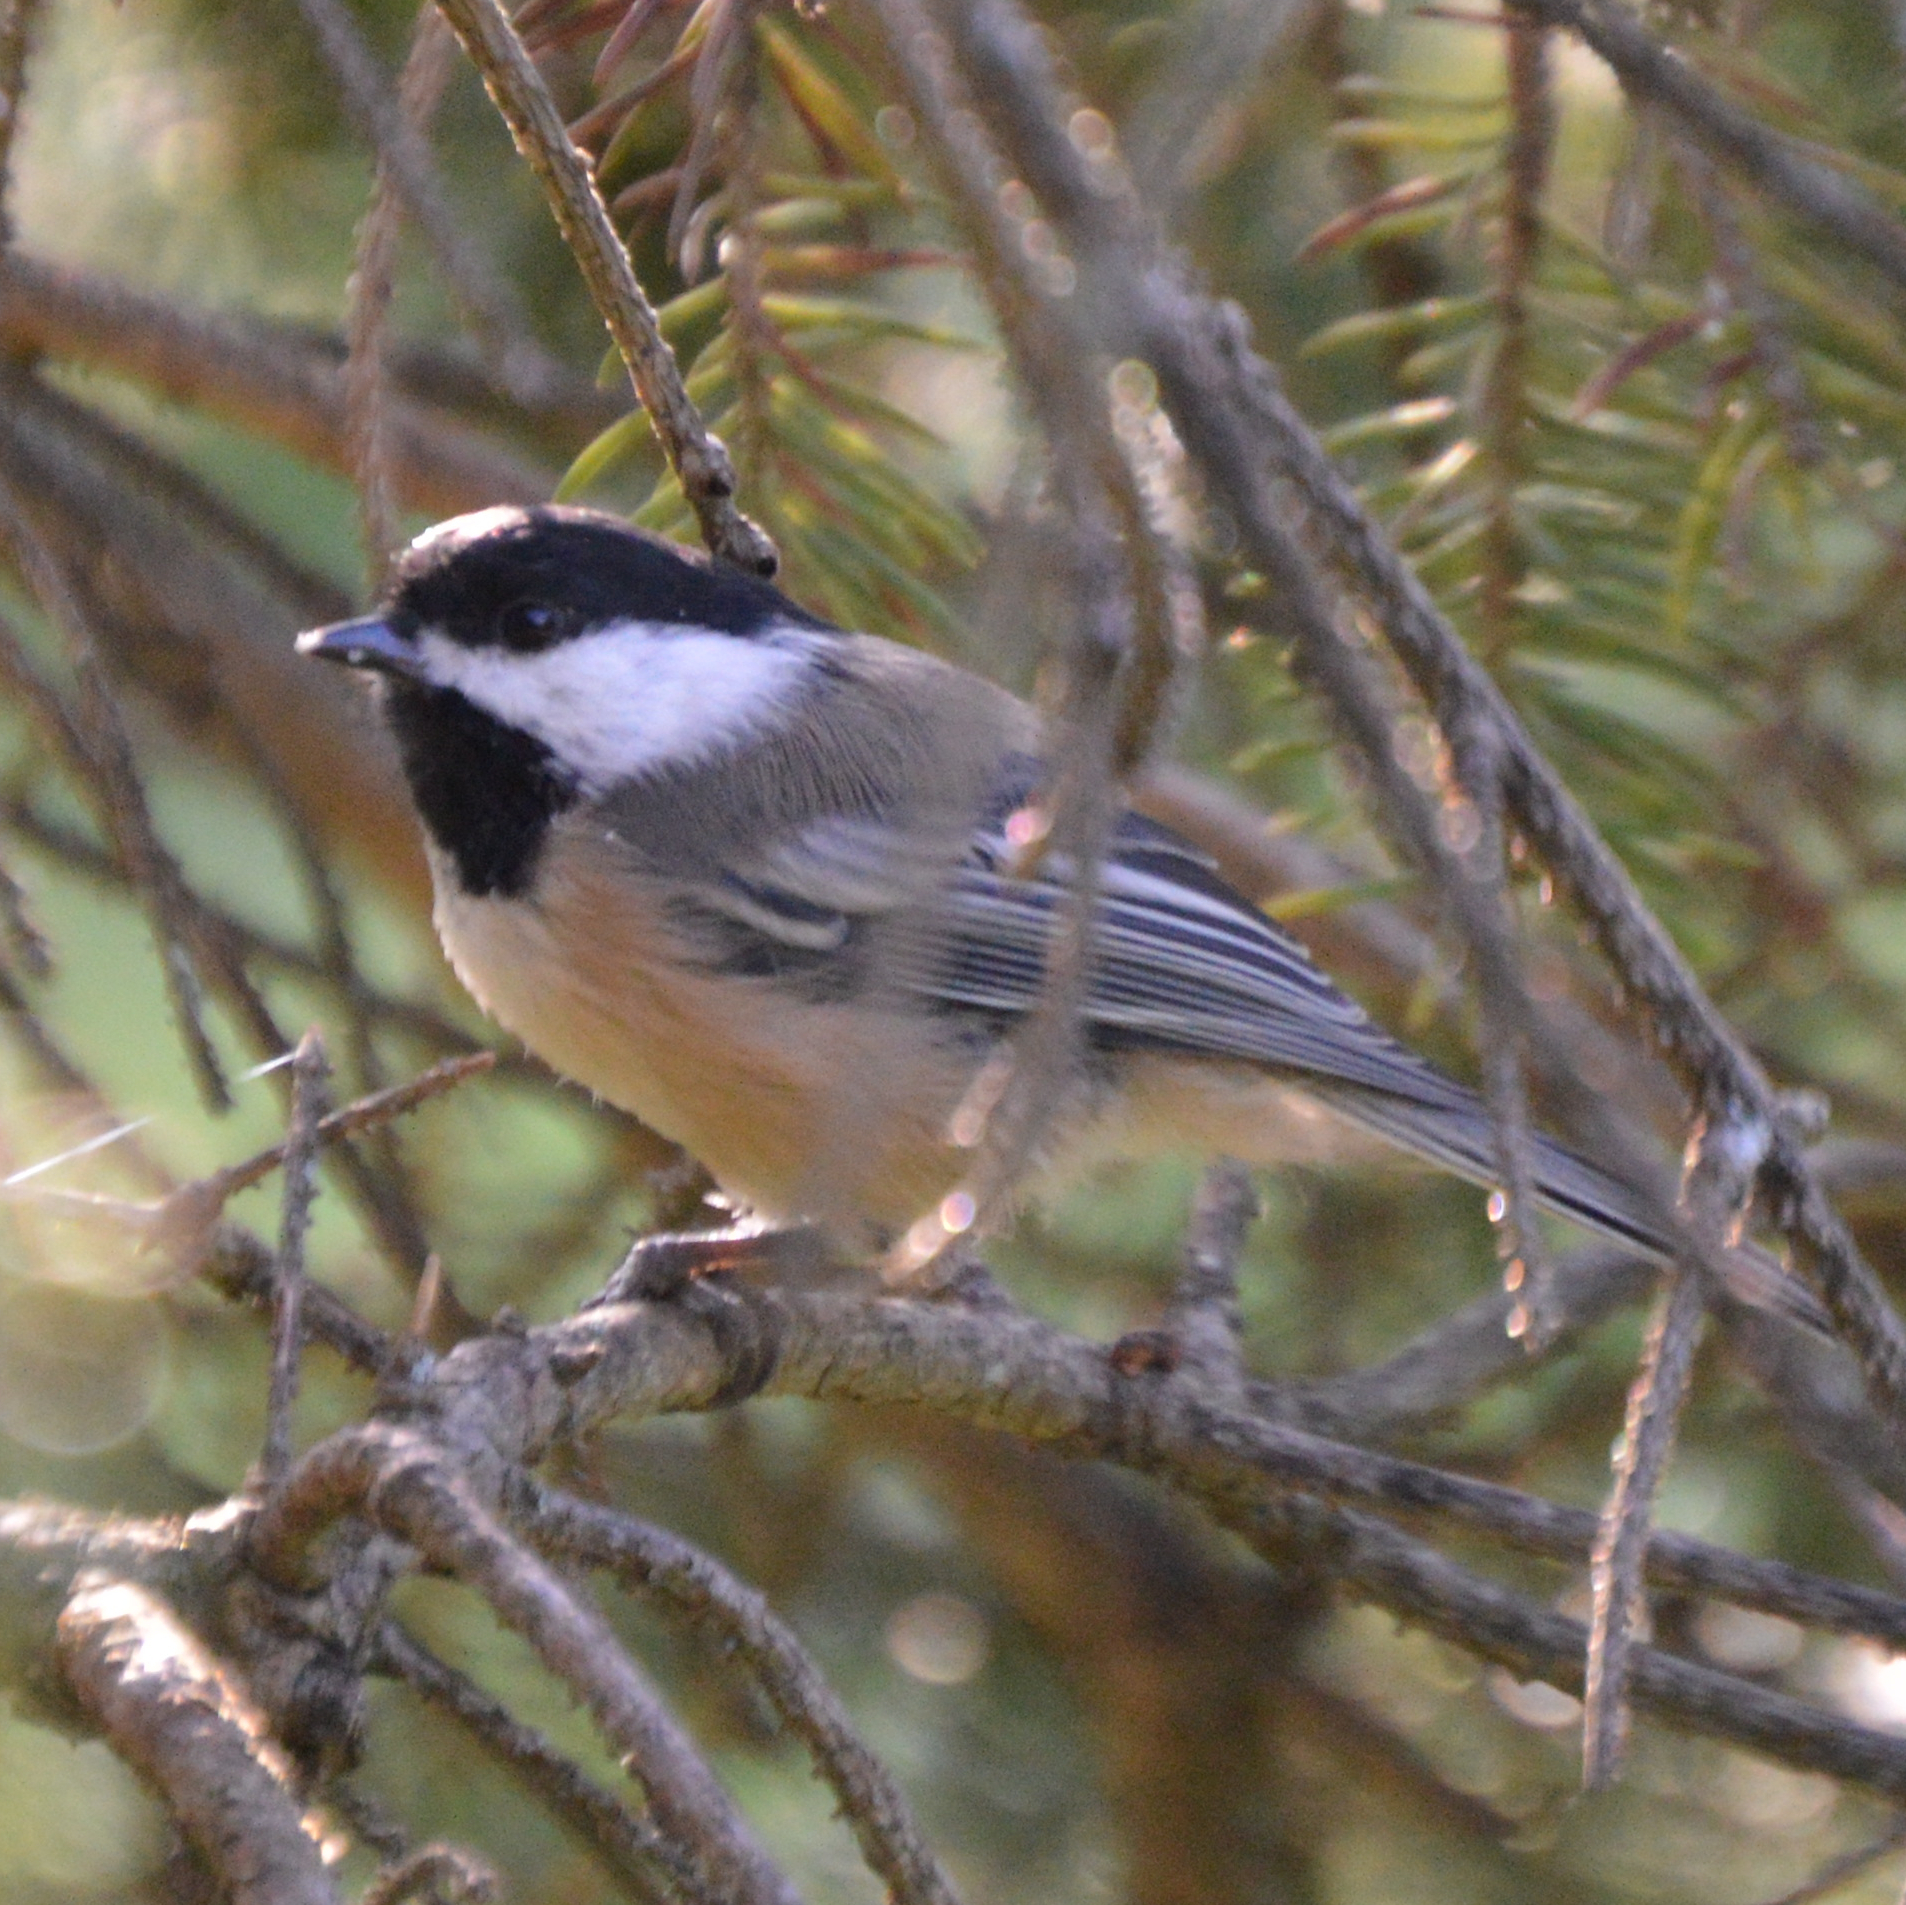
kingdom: Animalia
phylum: Chordata
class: Aves
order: Passeriformes
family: Paridae
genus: Poecile
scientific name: Poecile atricapillus
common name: Black-capped chickadee
